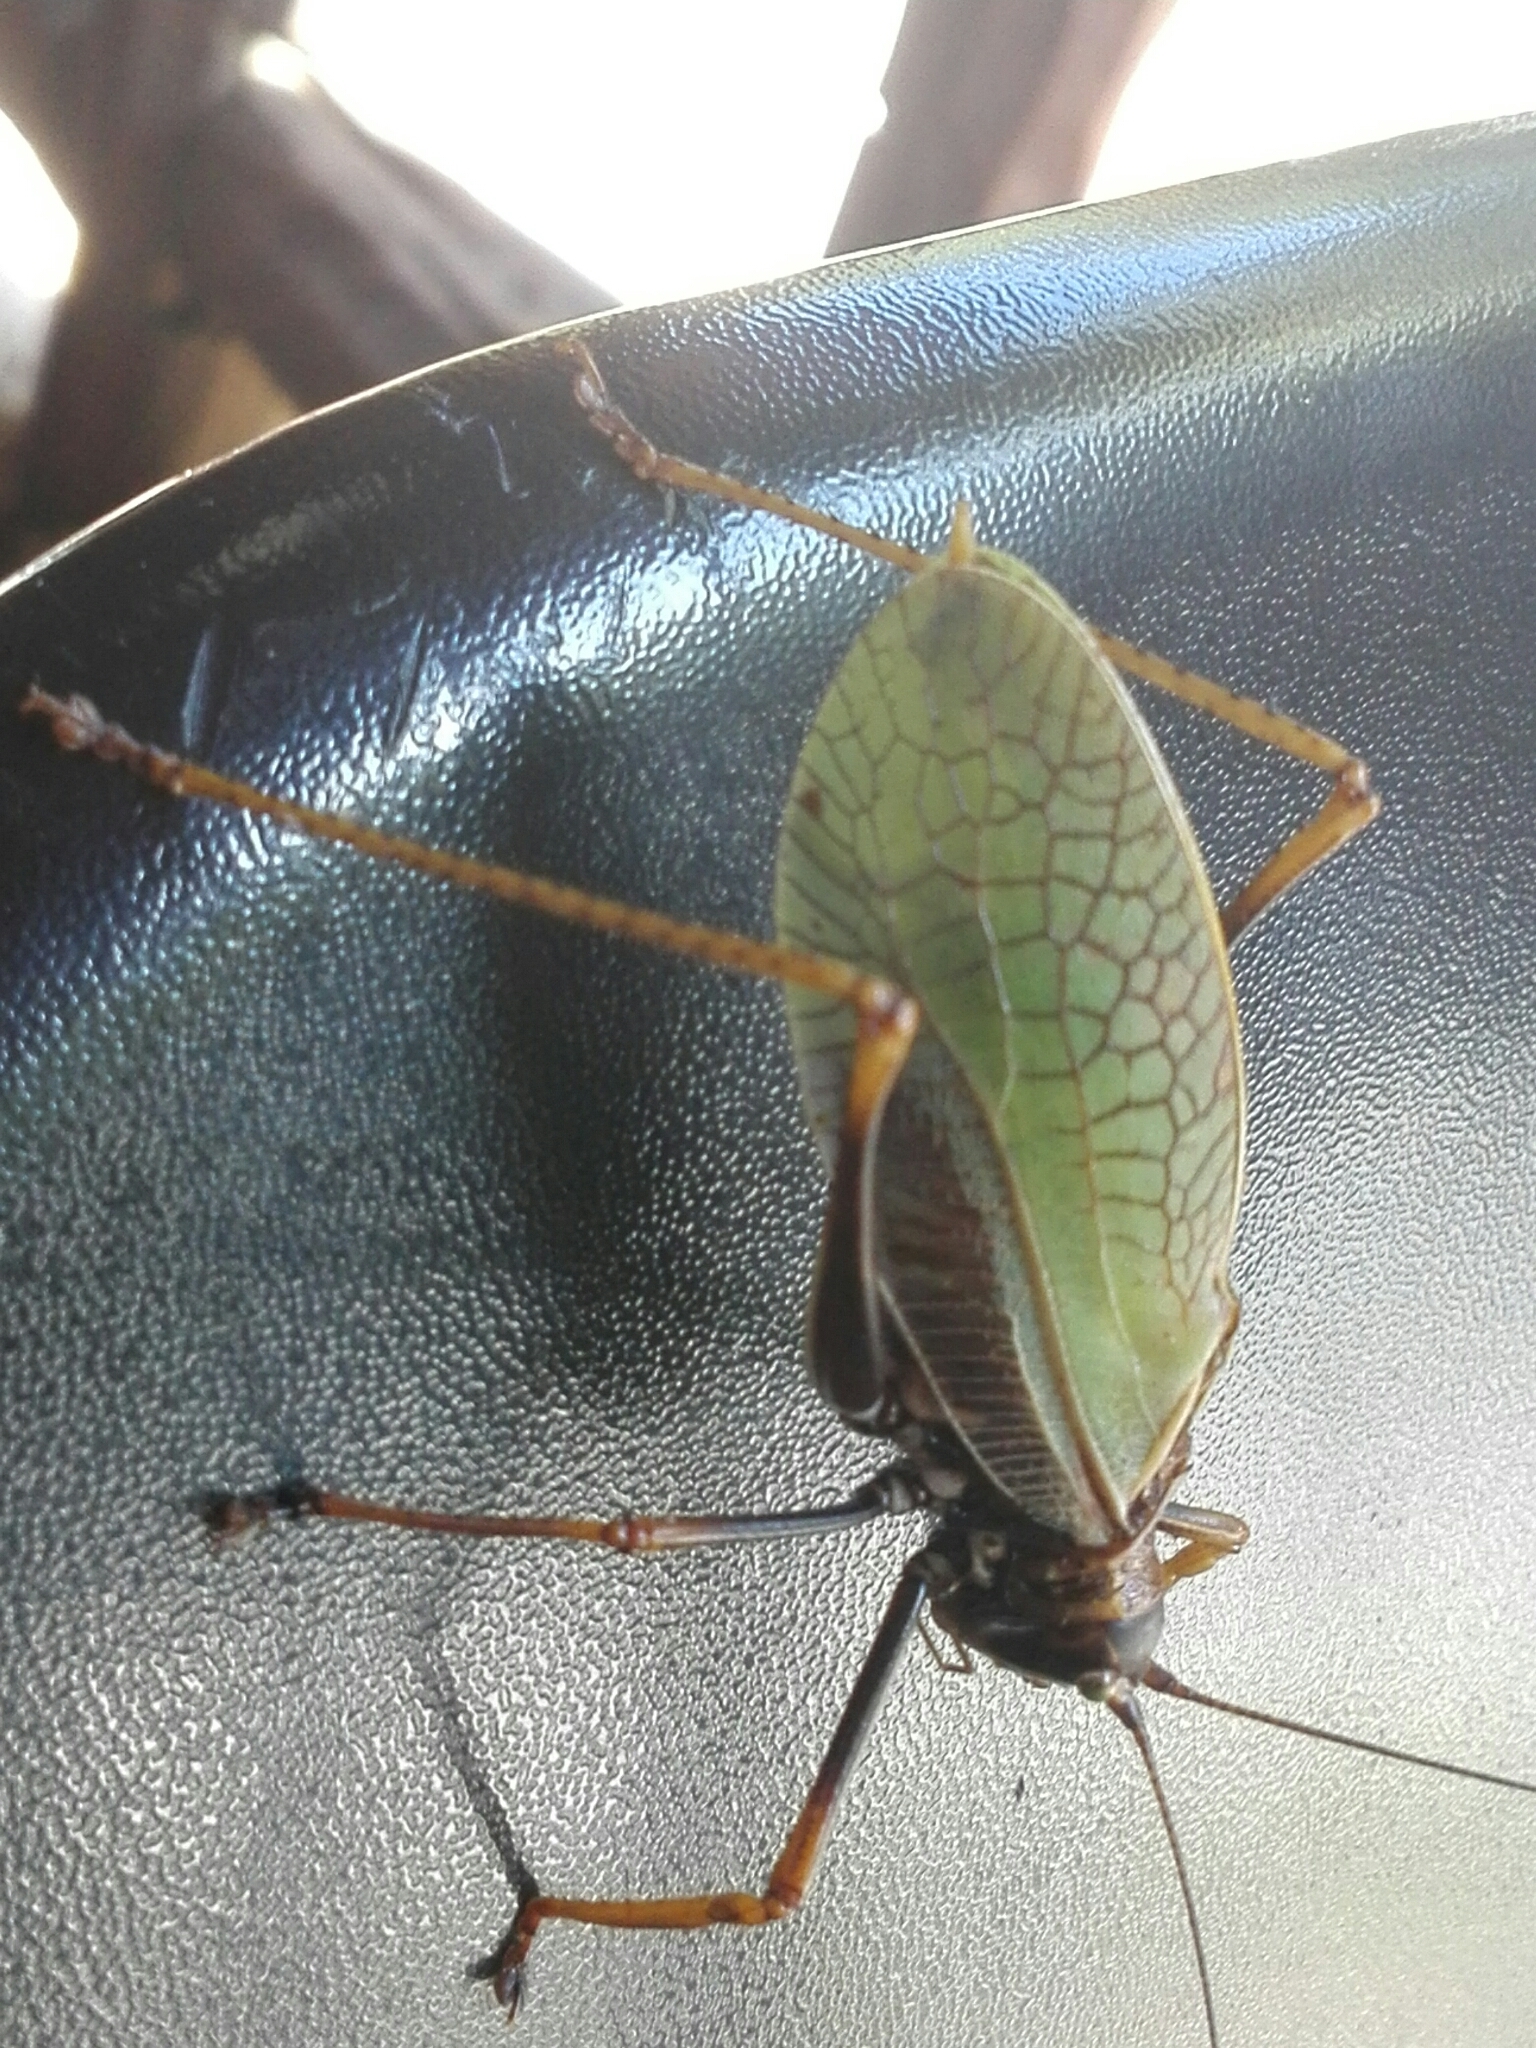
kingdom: Animalia
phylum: Arthropoda
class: Insecta
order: Orthoptera
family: Tettigoniidae
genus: Pterophylla
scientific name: Pterophylla beltrani
